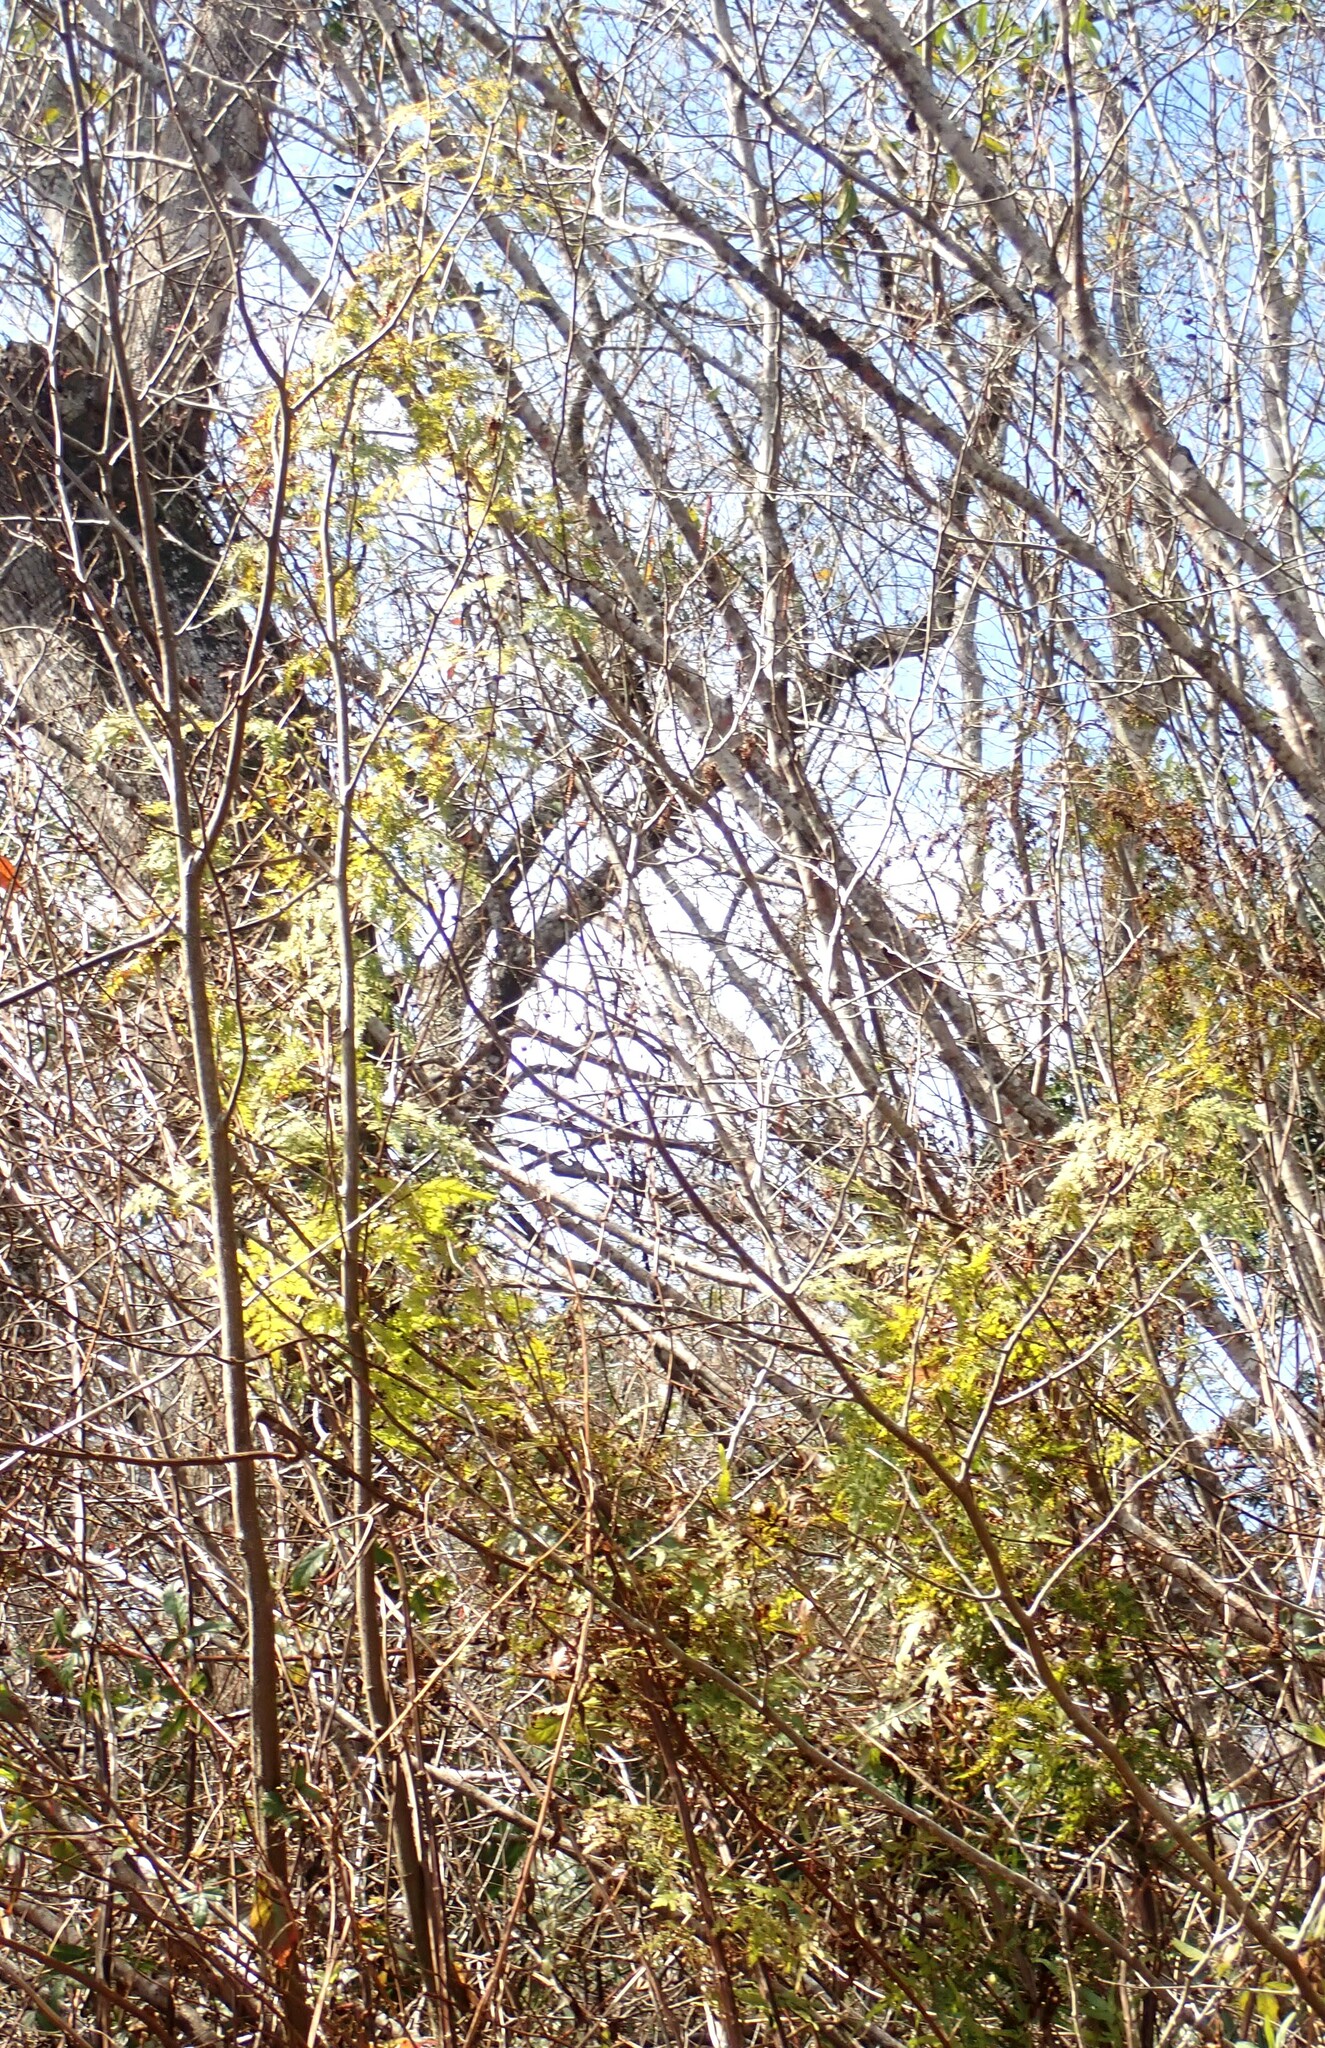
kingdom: Plantae
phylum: Tracheophyta
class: Polypodiopsida
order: Schizaeales
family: Lygodiaceae
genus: Lygodium
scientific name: Lygodium japonicum
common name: Japanese climbing fern
